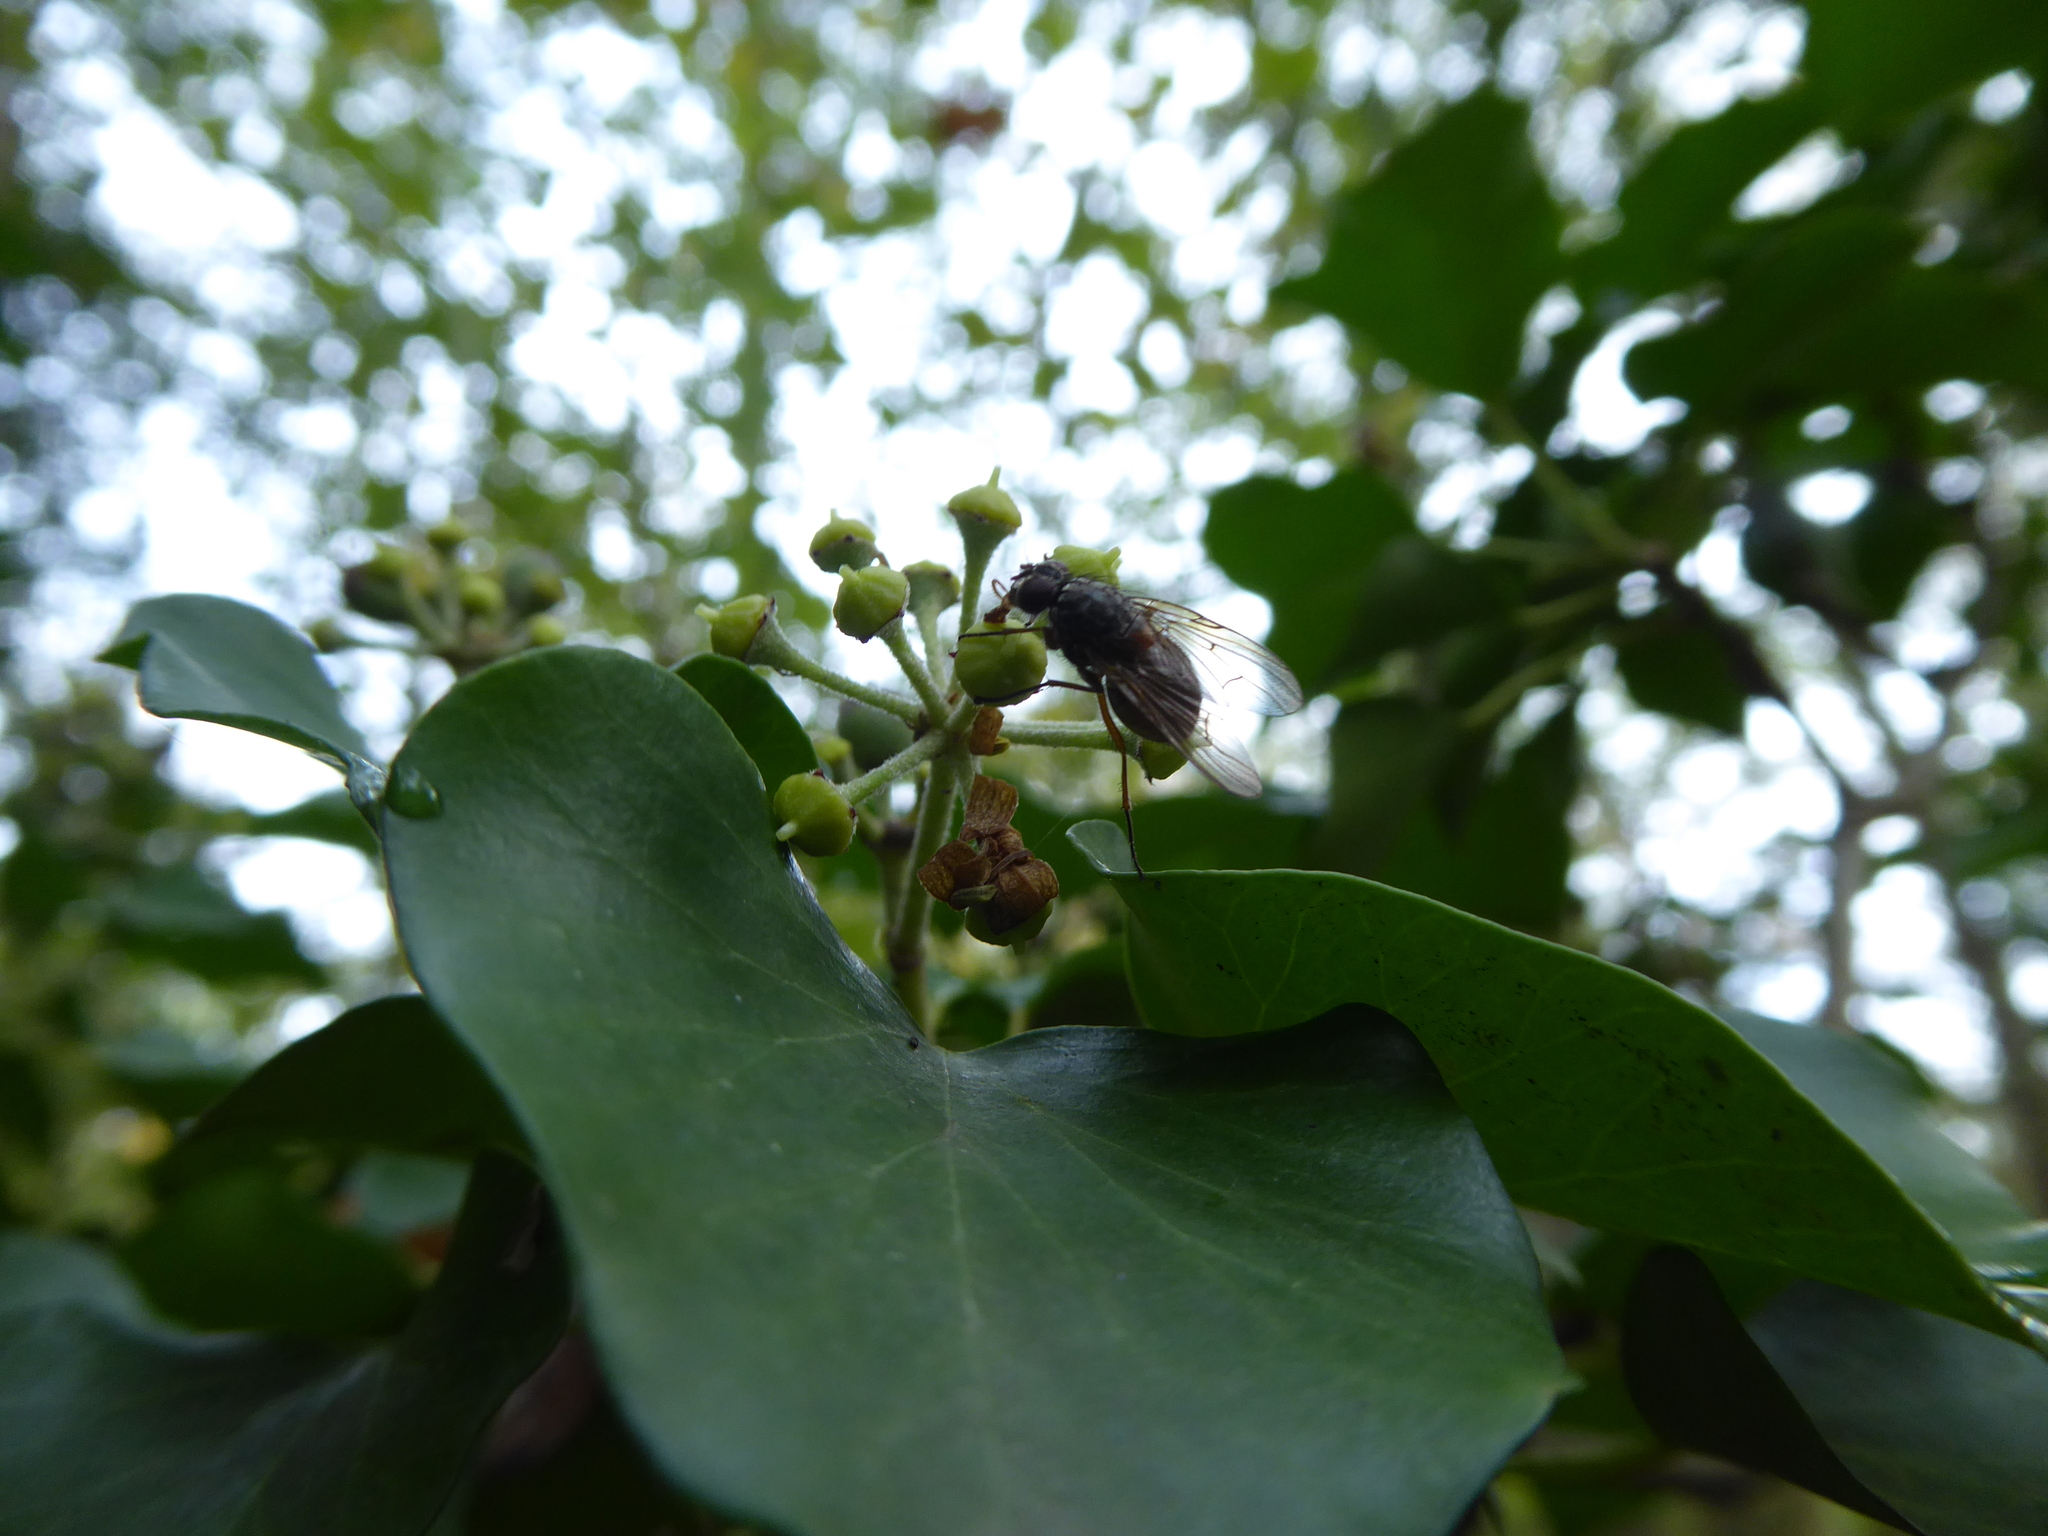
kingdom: Plantae
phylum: Tracheophyta
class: Magnoliopsida
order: Apiales
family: Araliaceae
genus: Hedera
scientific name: Hedera helix
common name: Ivy
